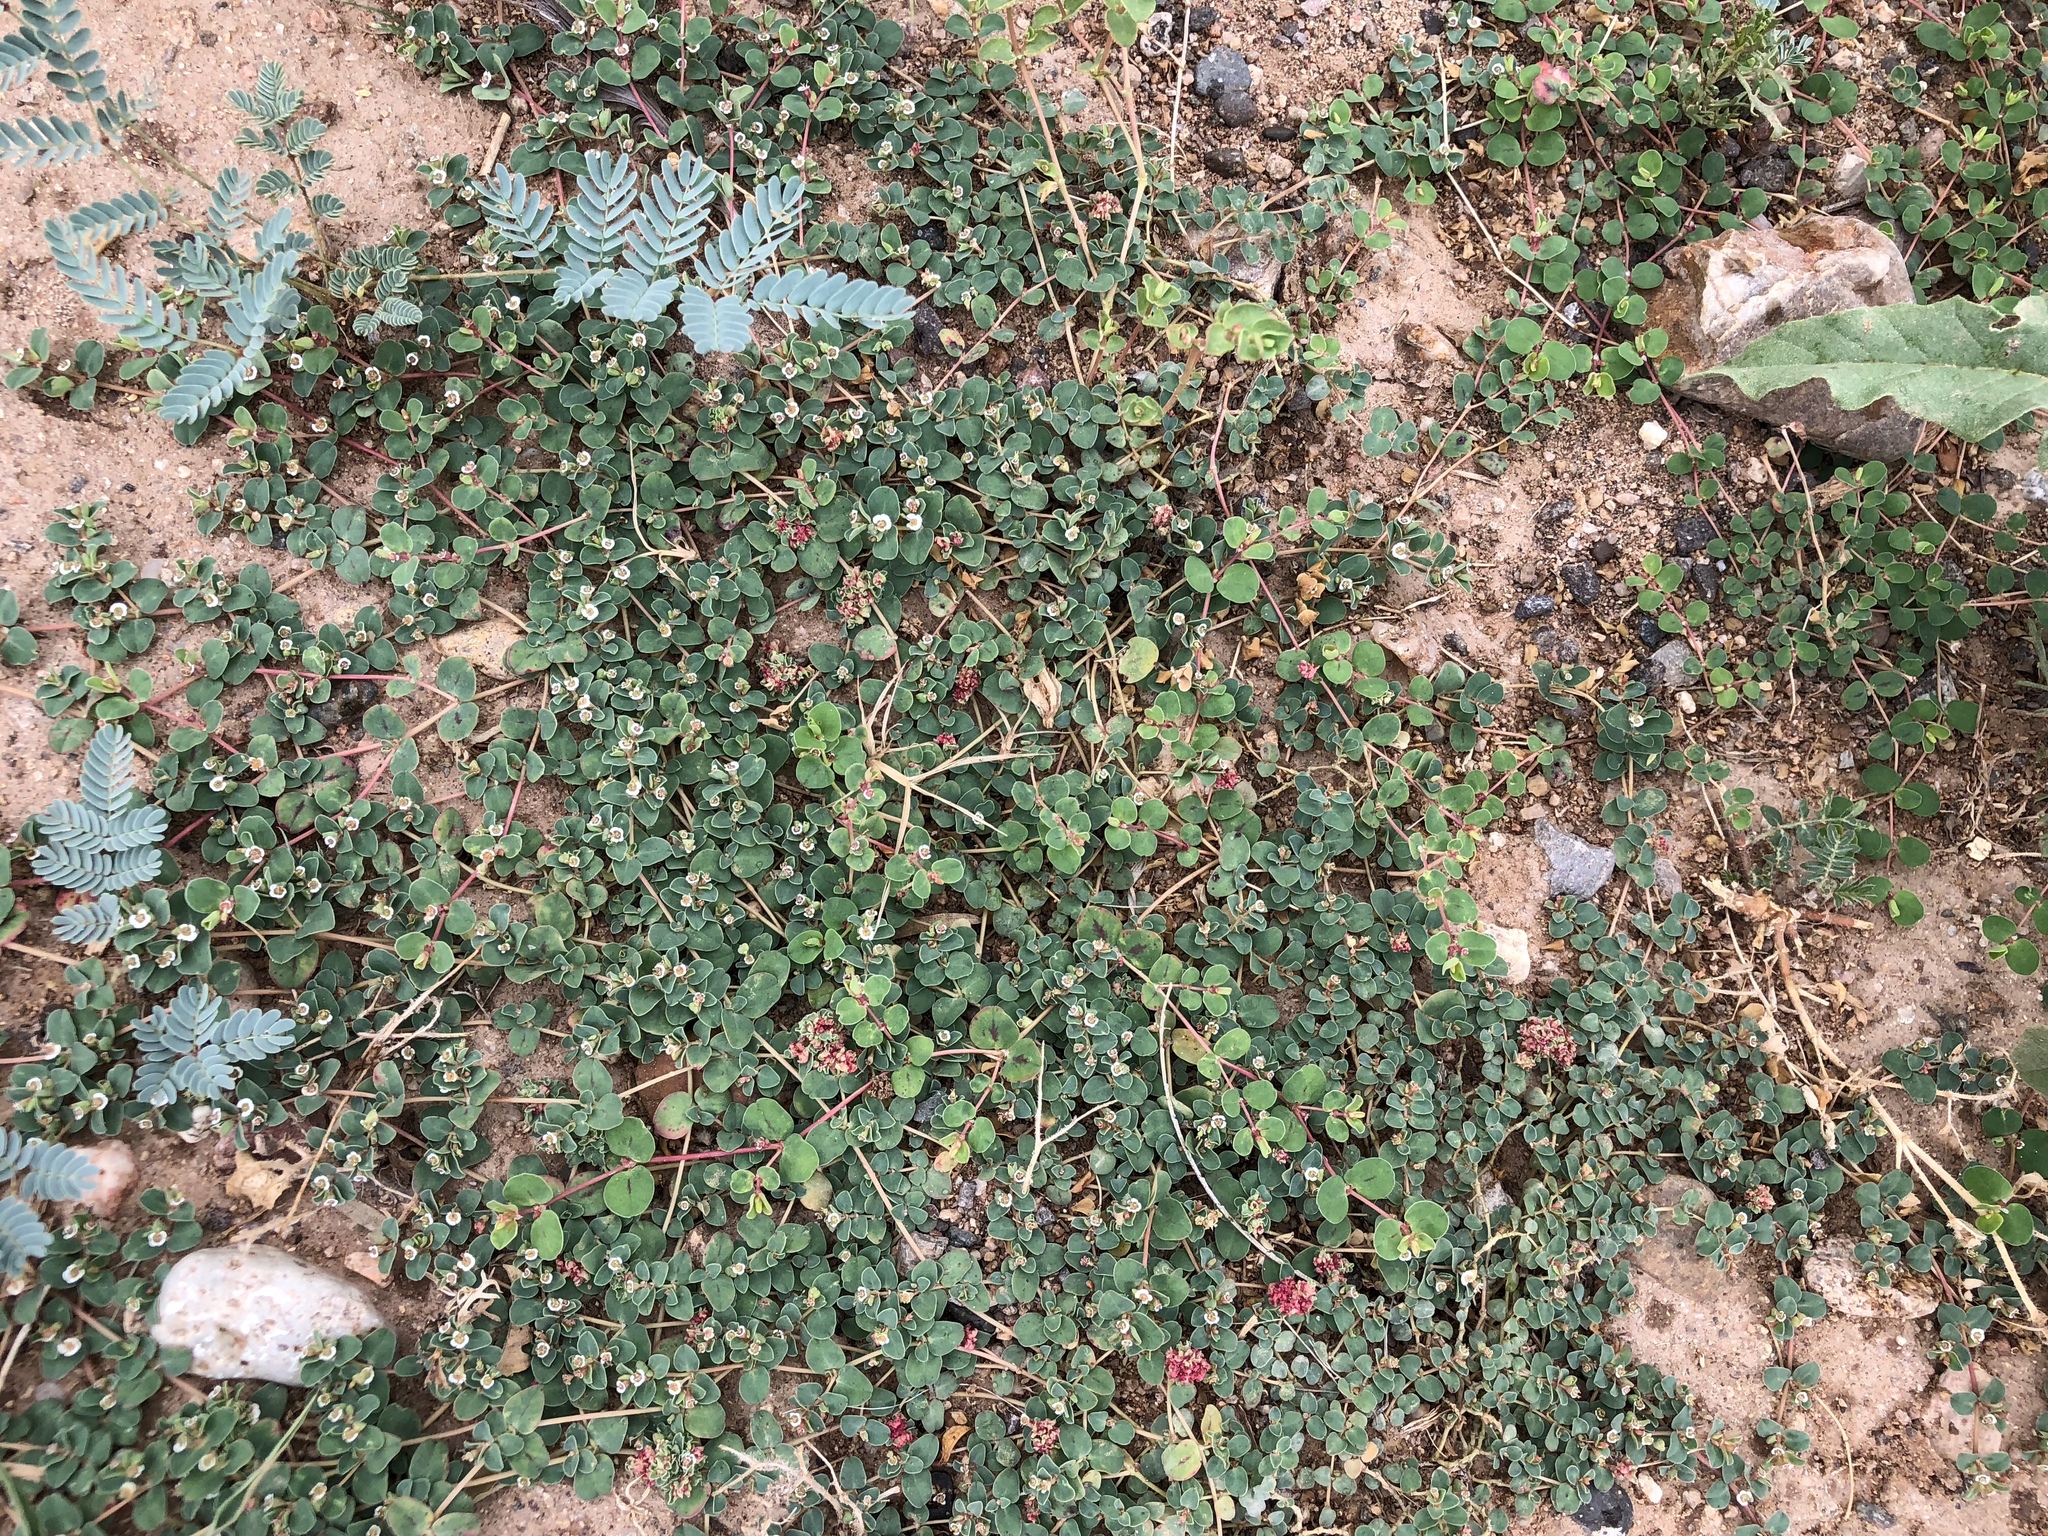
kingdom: Plantae
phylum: Tracheophyta
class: Magnoliopsida
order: Malpighiales
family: Euphorbiaceae
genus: Euphorbia
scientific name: Euphorbia albomarginata
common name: Whitemargin sandmat
